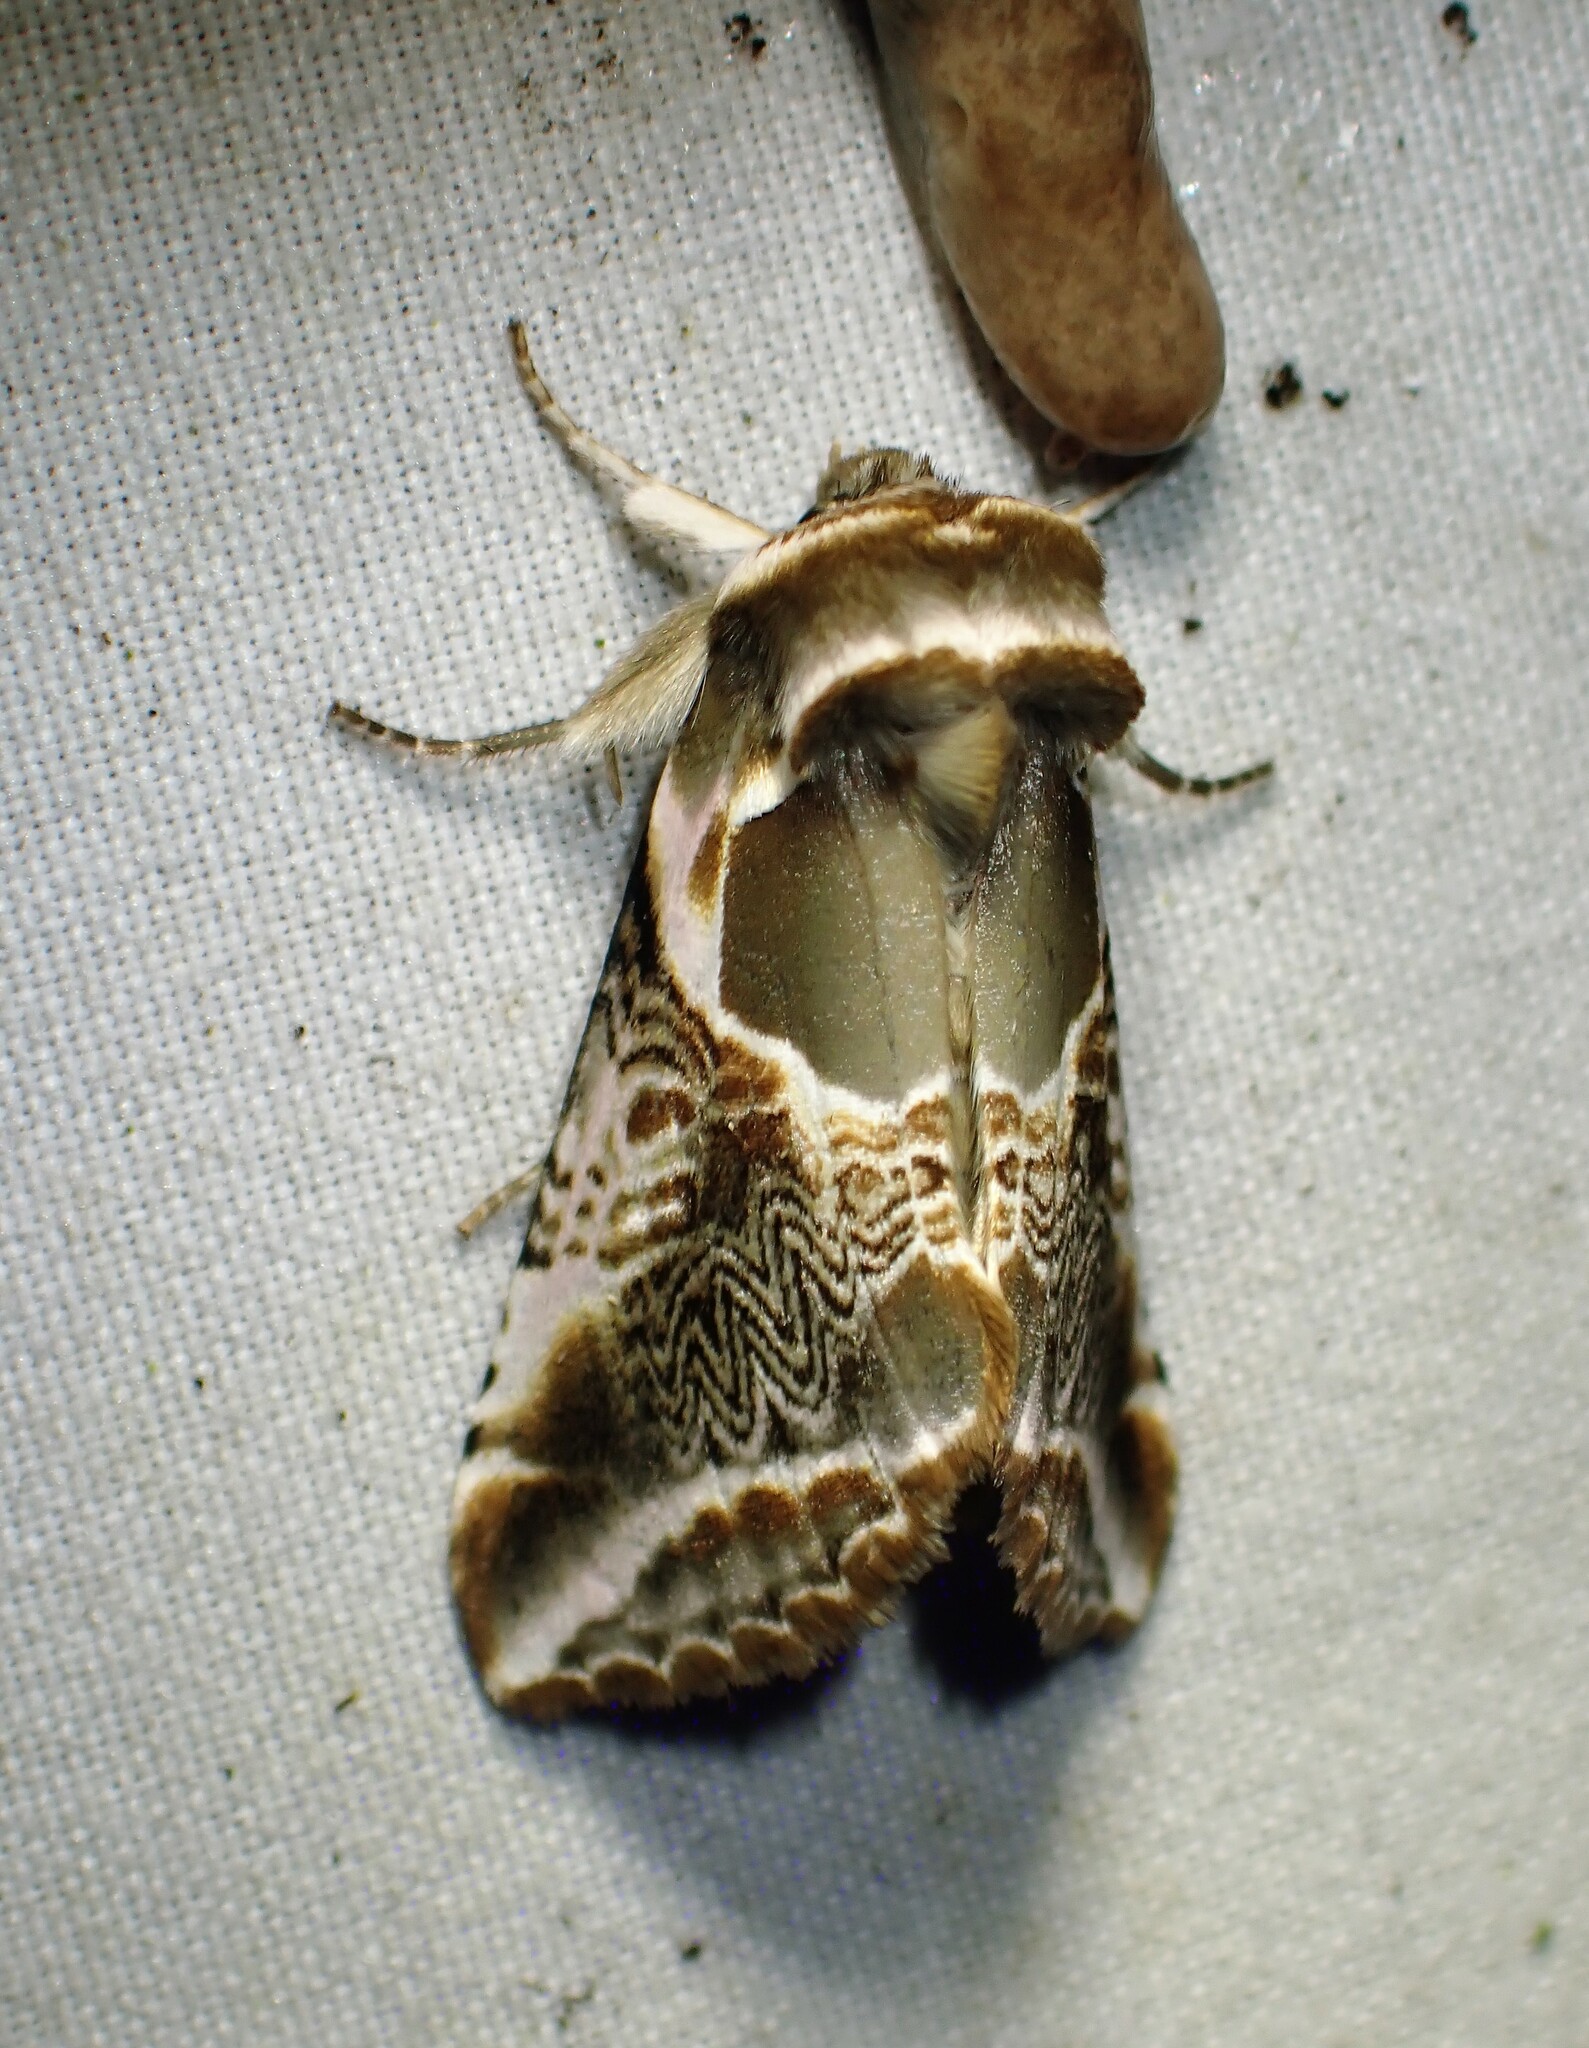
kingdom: Animalia
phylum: Arthropoda
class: Insecta
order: Lepidoptera
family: Drepanidae
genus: Habrosyne
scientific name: Habrosyne scripta
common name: Lettered habrosyne moth
